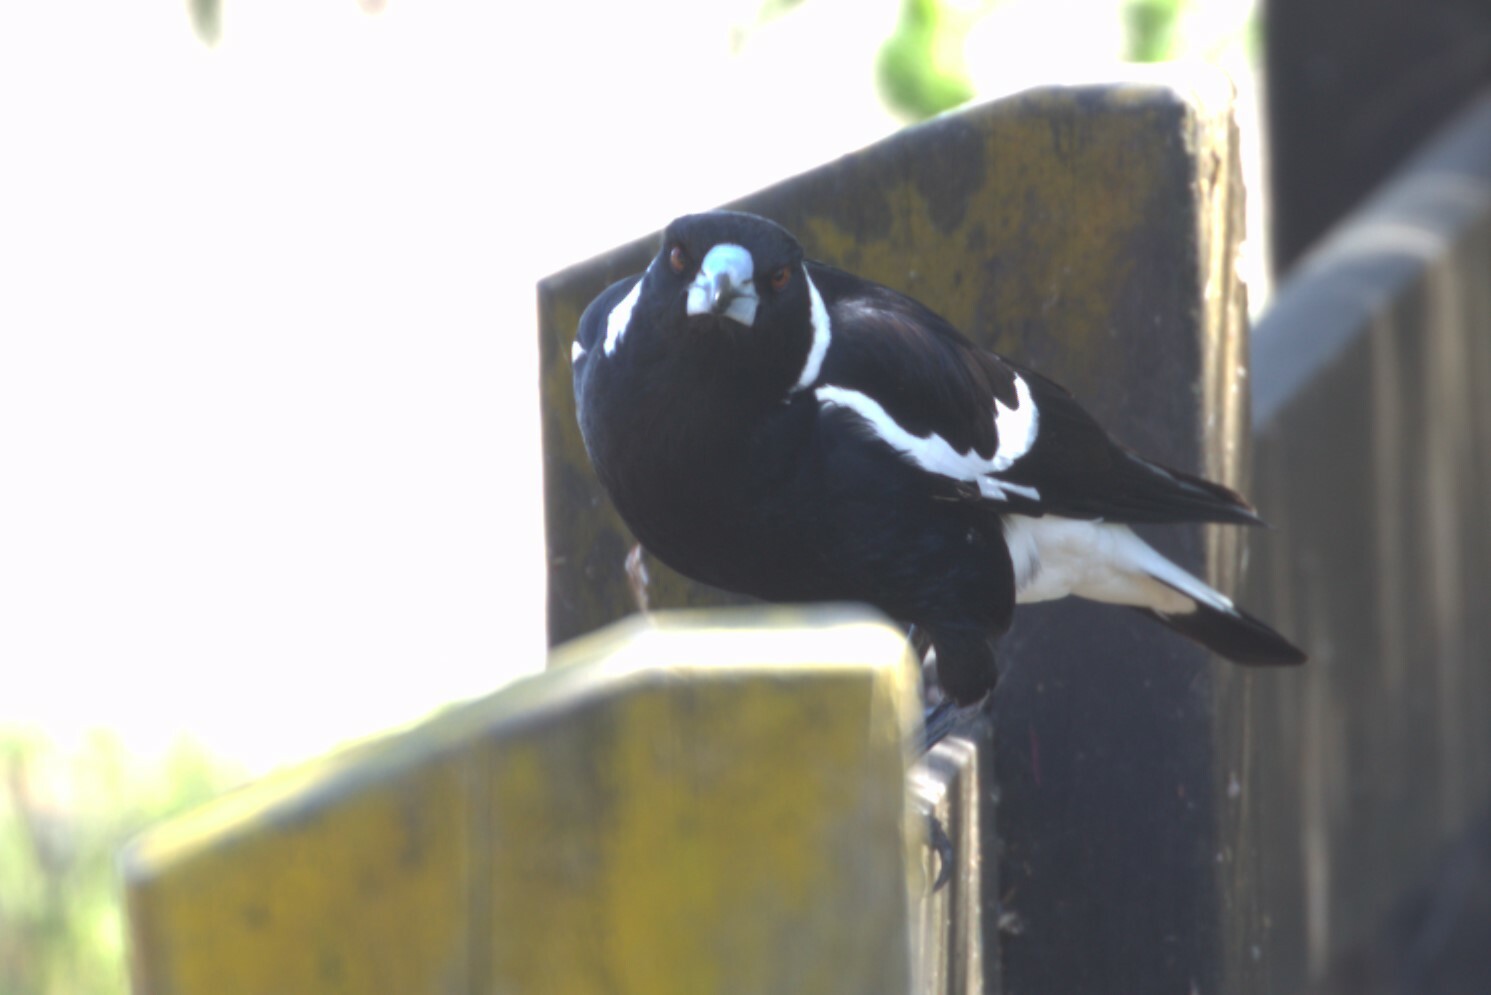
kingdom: Animalia
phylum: Chordata
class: Aves
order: Passeriformes
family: Cracticidae
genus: Gymnorhina
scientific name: Gymnorhina tibicen
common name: Australian magpie
